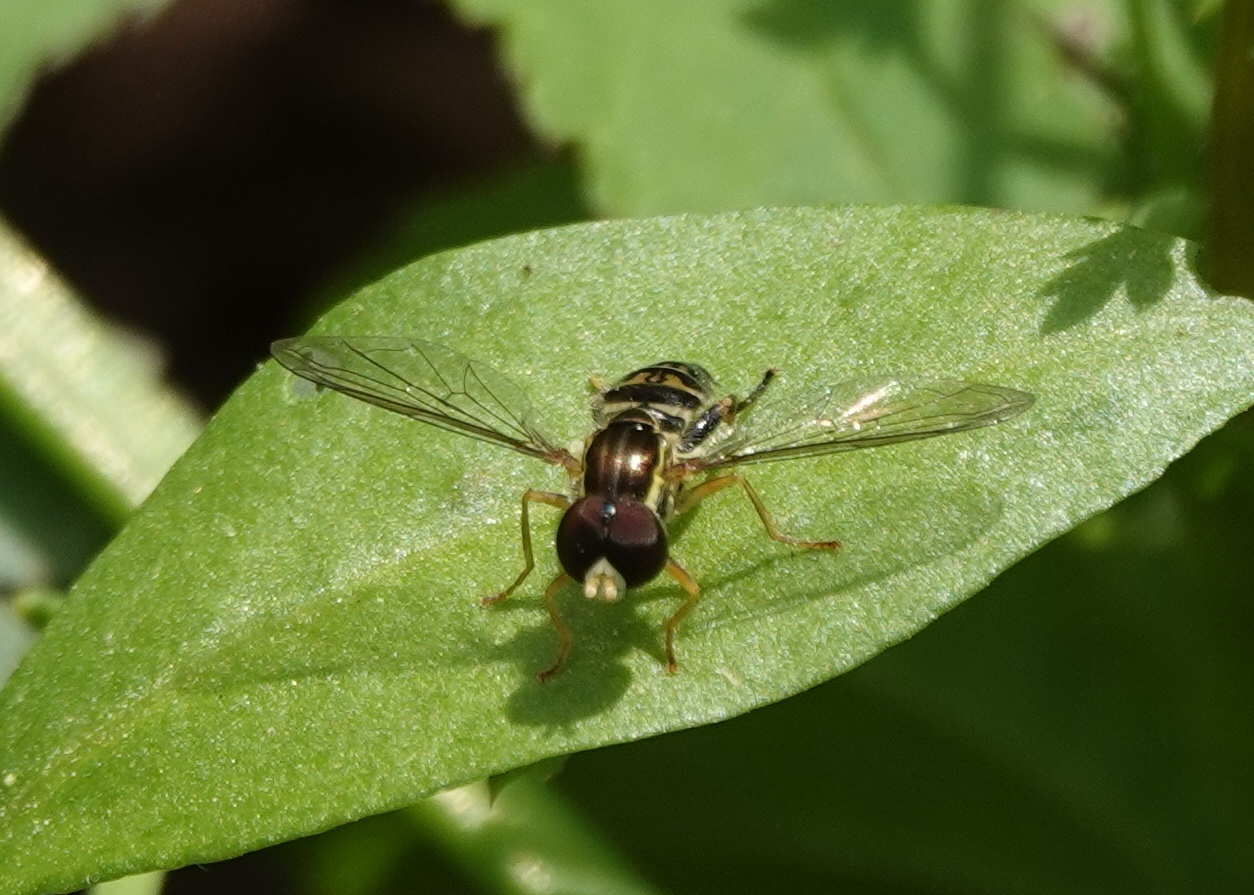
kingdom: Animalia
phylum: Arthropoda
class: Insecta
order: Diptera
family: Syrphidae
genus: Toxomerus
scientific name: Toxomerus geminatus
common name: Eastern calligrapher
